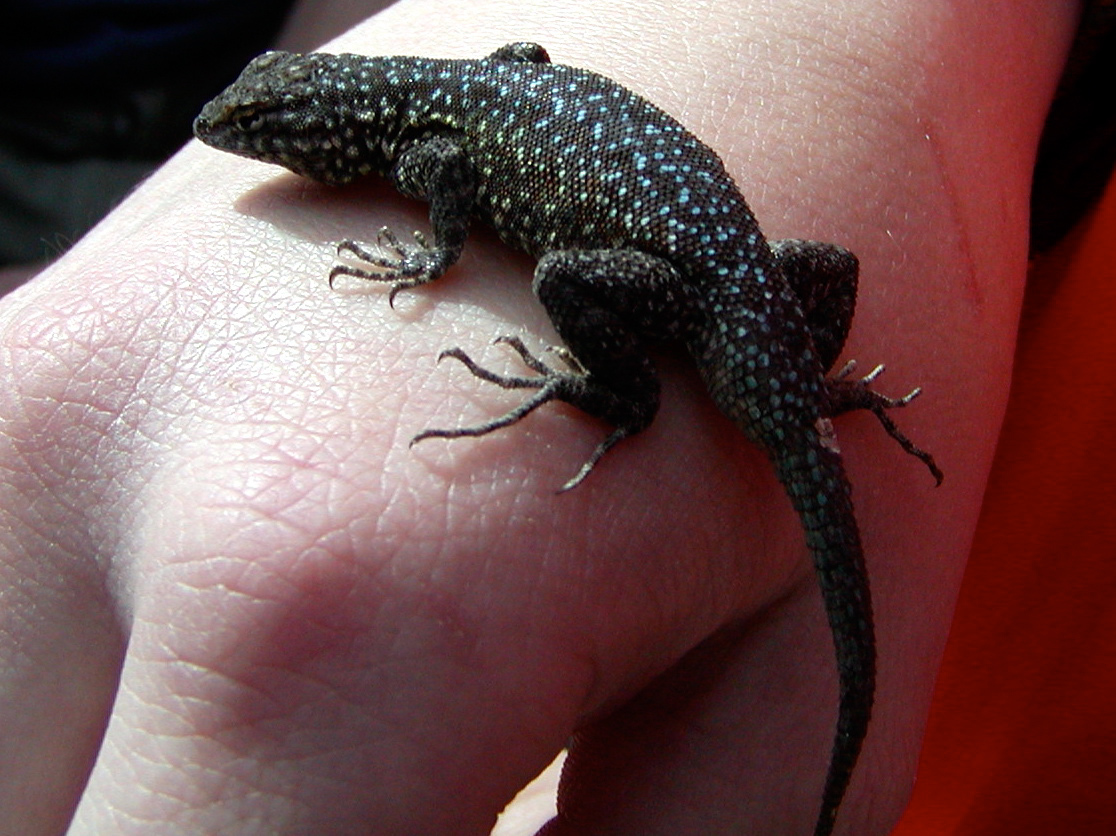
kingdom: Animalia
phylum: Chordata
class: Squamata
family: Phrynosomatidae
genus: Uta
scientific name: Uta stansburiana
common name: Side-blotched lizard
